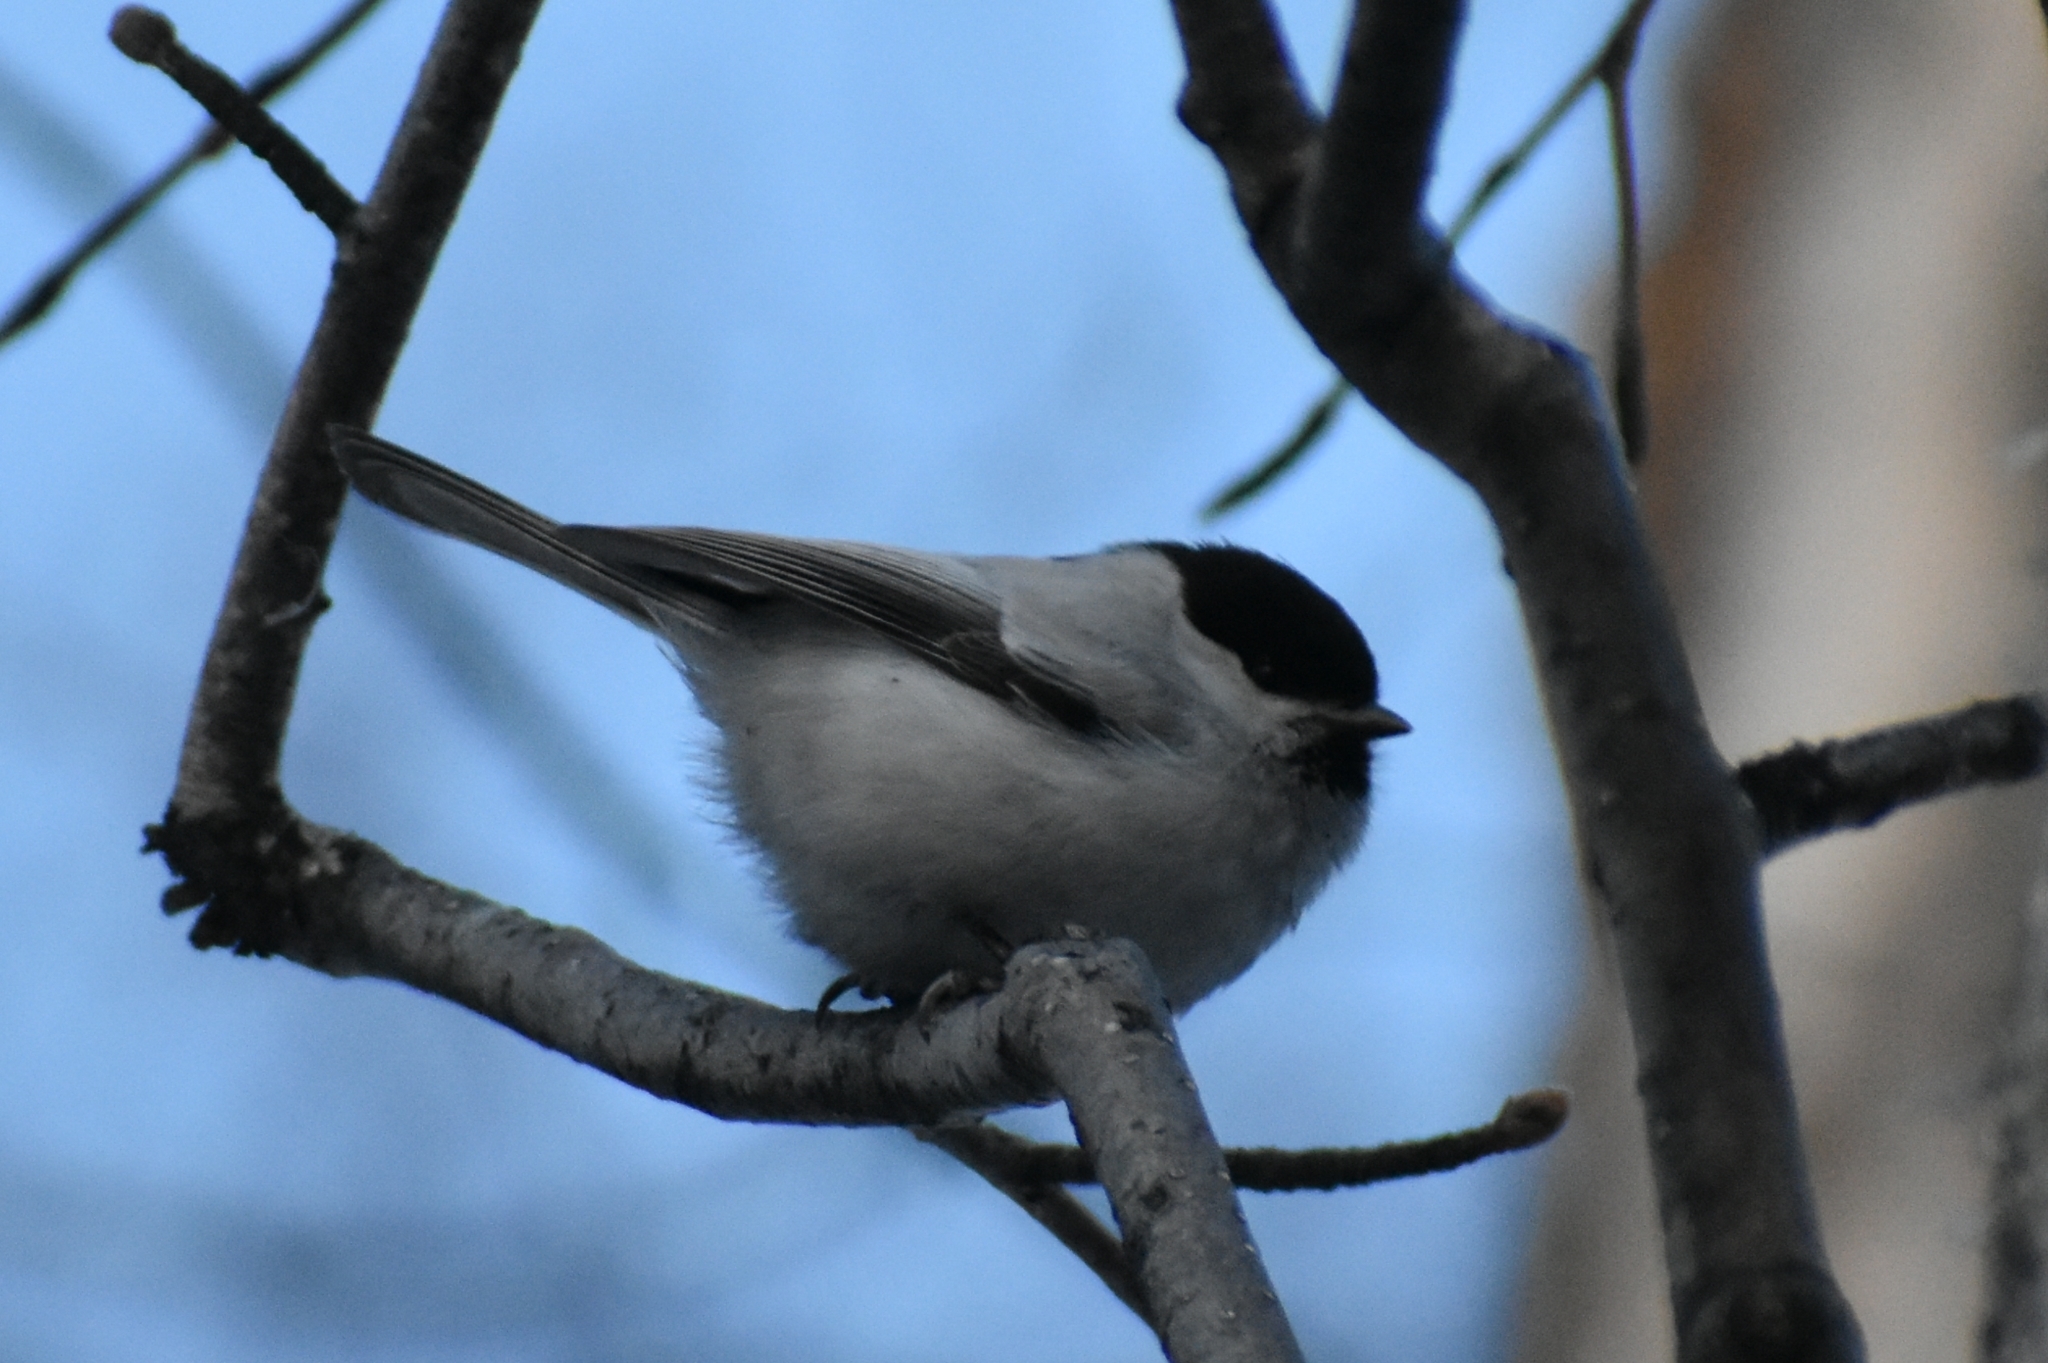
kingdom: Animalia
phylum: Chordata
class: Aves
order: Passeriformes
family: Paridae
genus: Poecile
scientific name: Poecile montanus
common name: Willow tit
